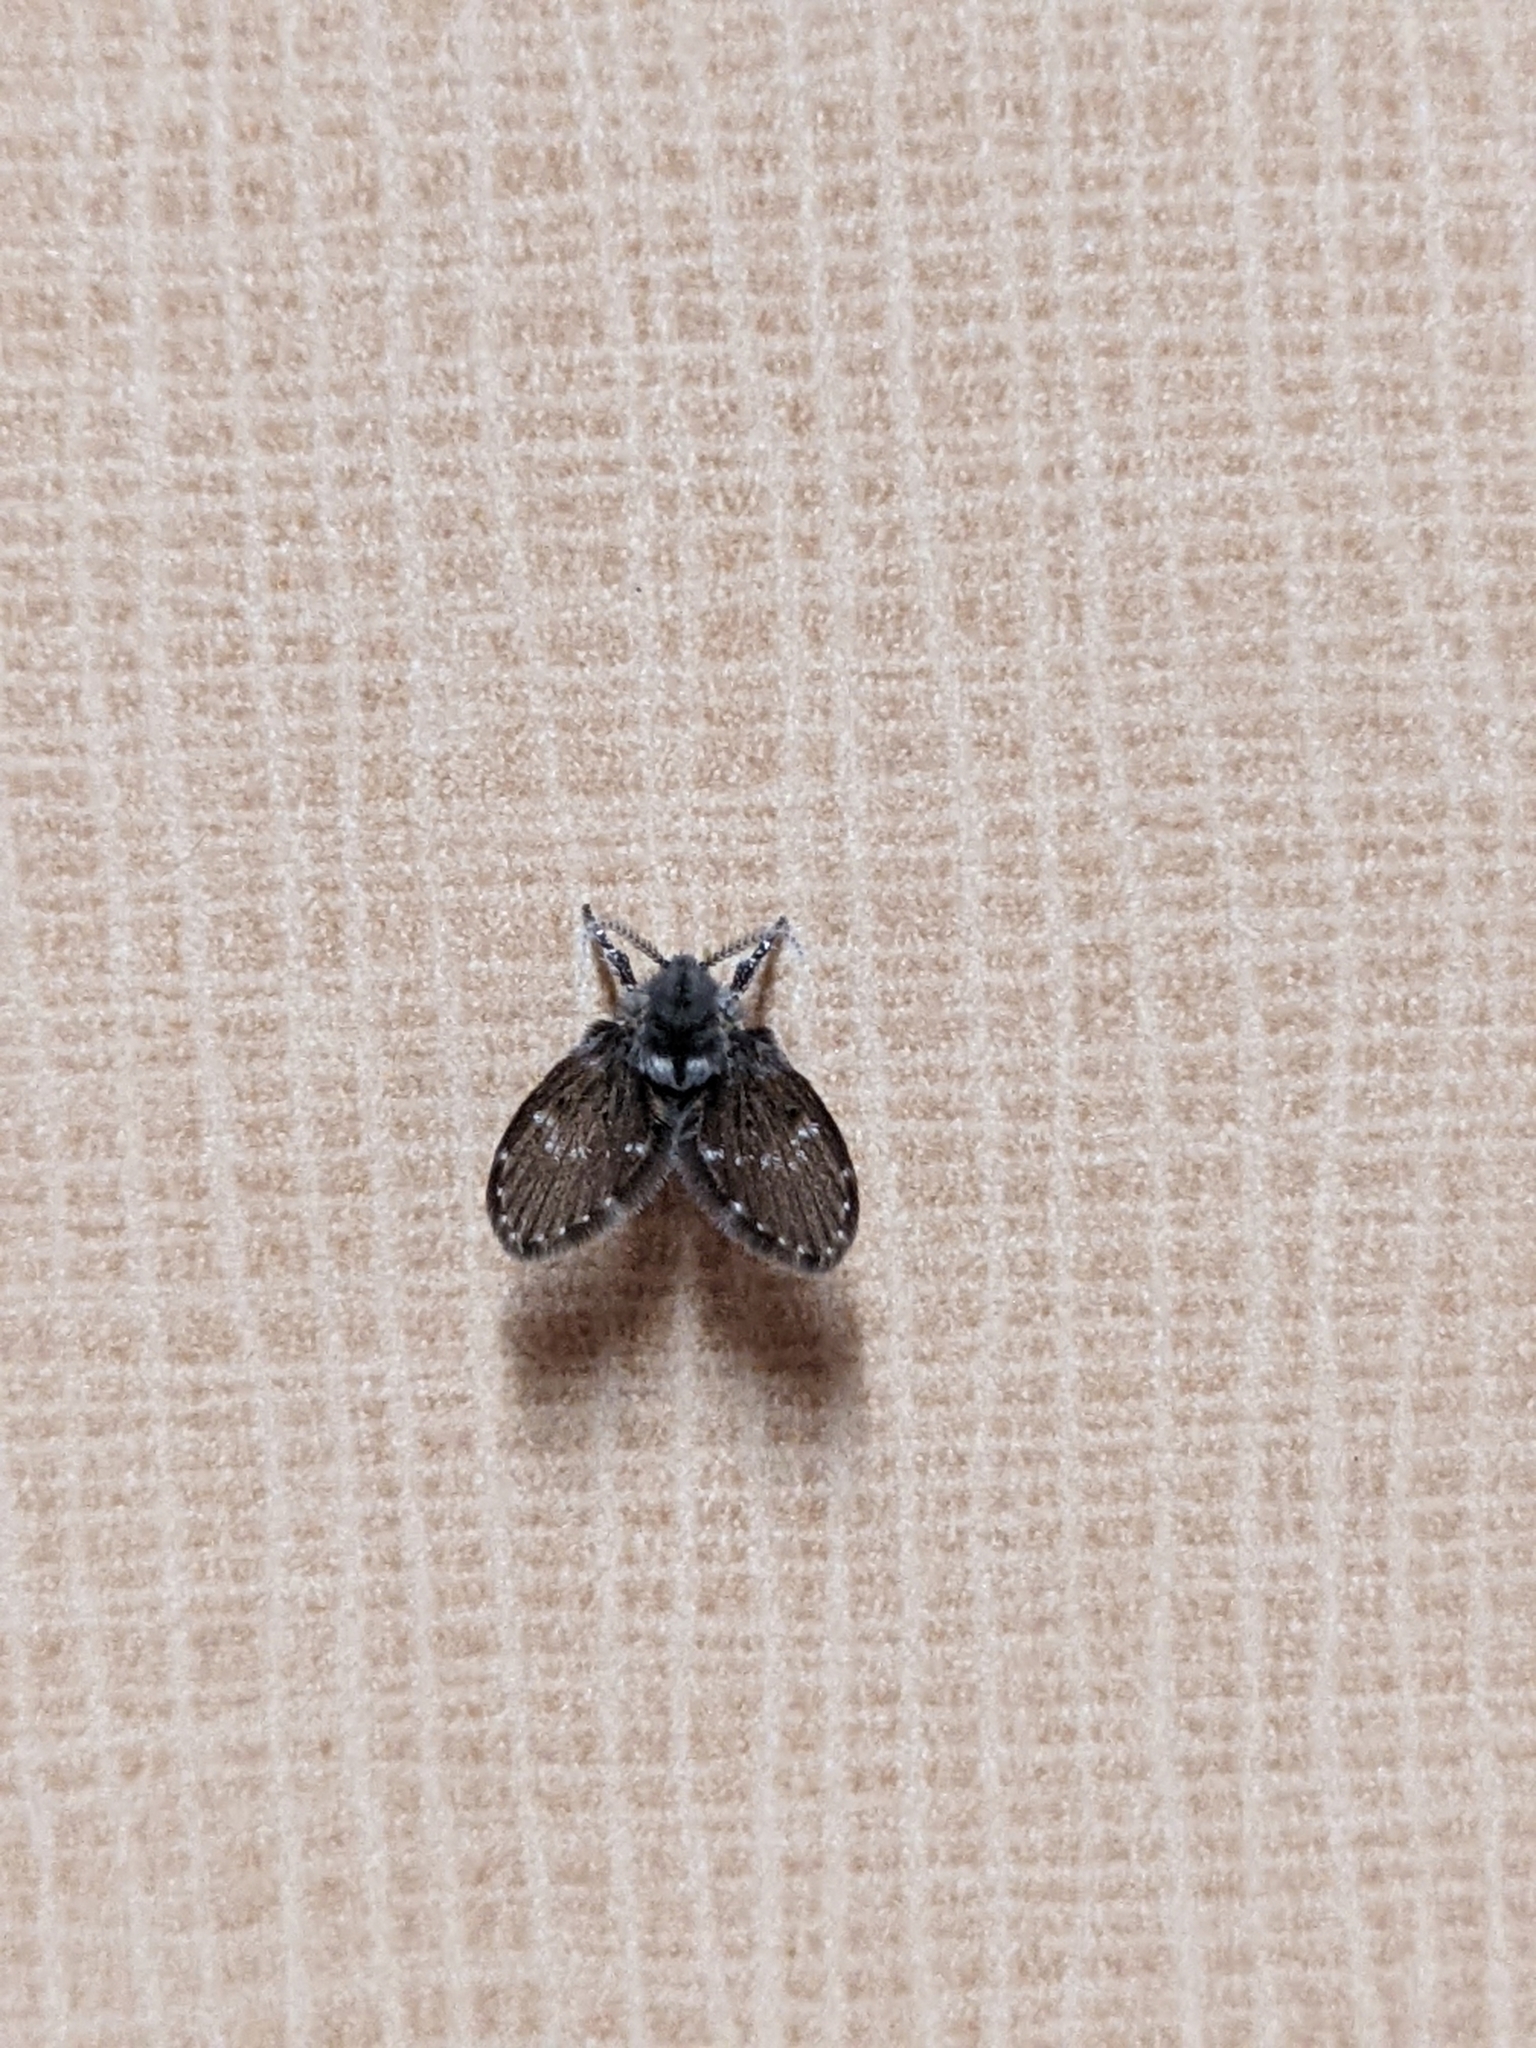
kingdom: Animalia
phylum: Arthropoda
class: Insecta
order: Diptera
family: Psychodidae
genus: Clogmia
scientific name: Clogmia albipunctatus
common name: White-spotted moth fly
